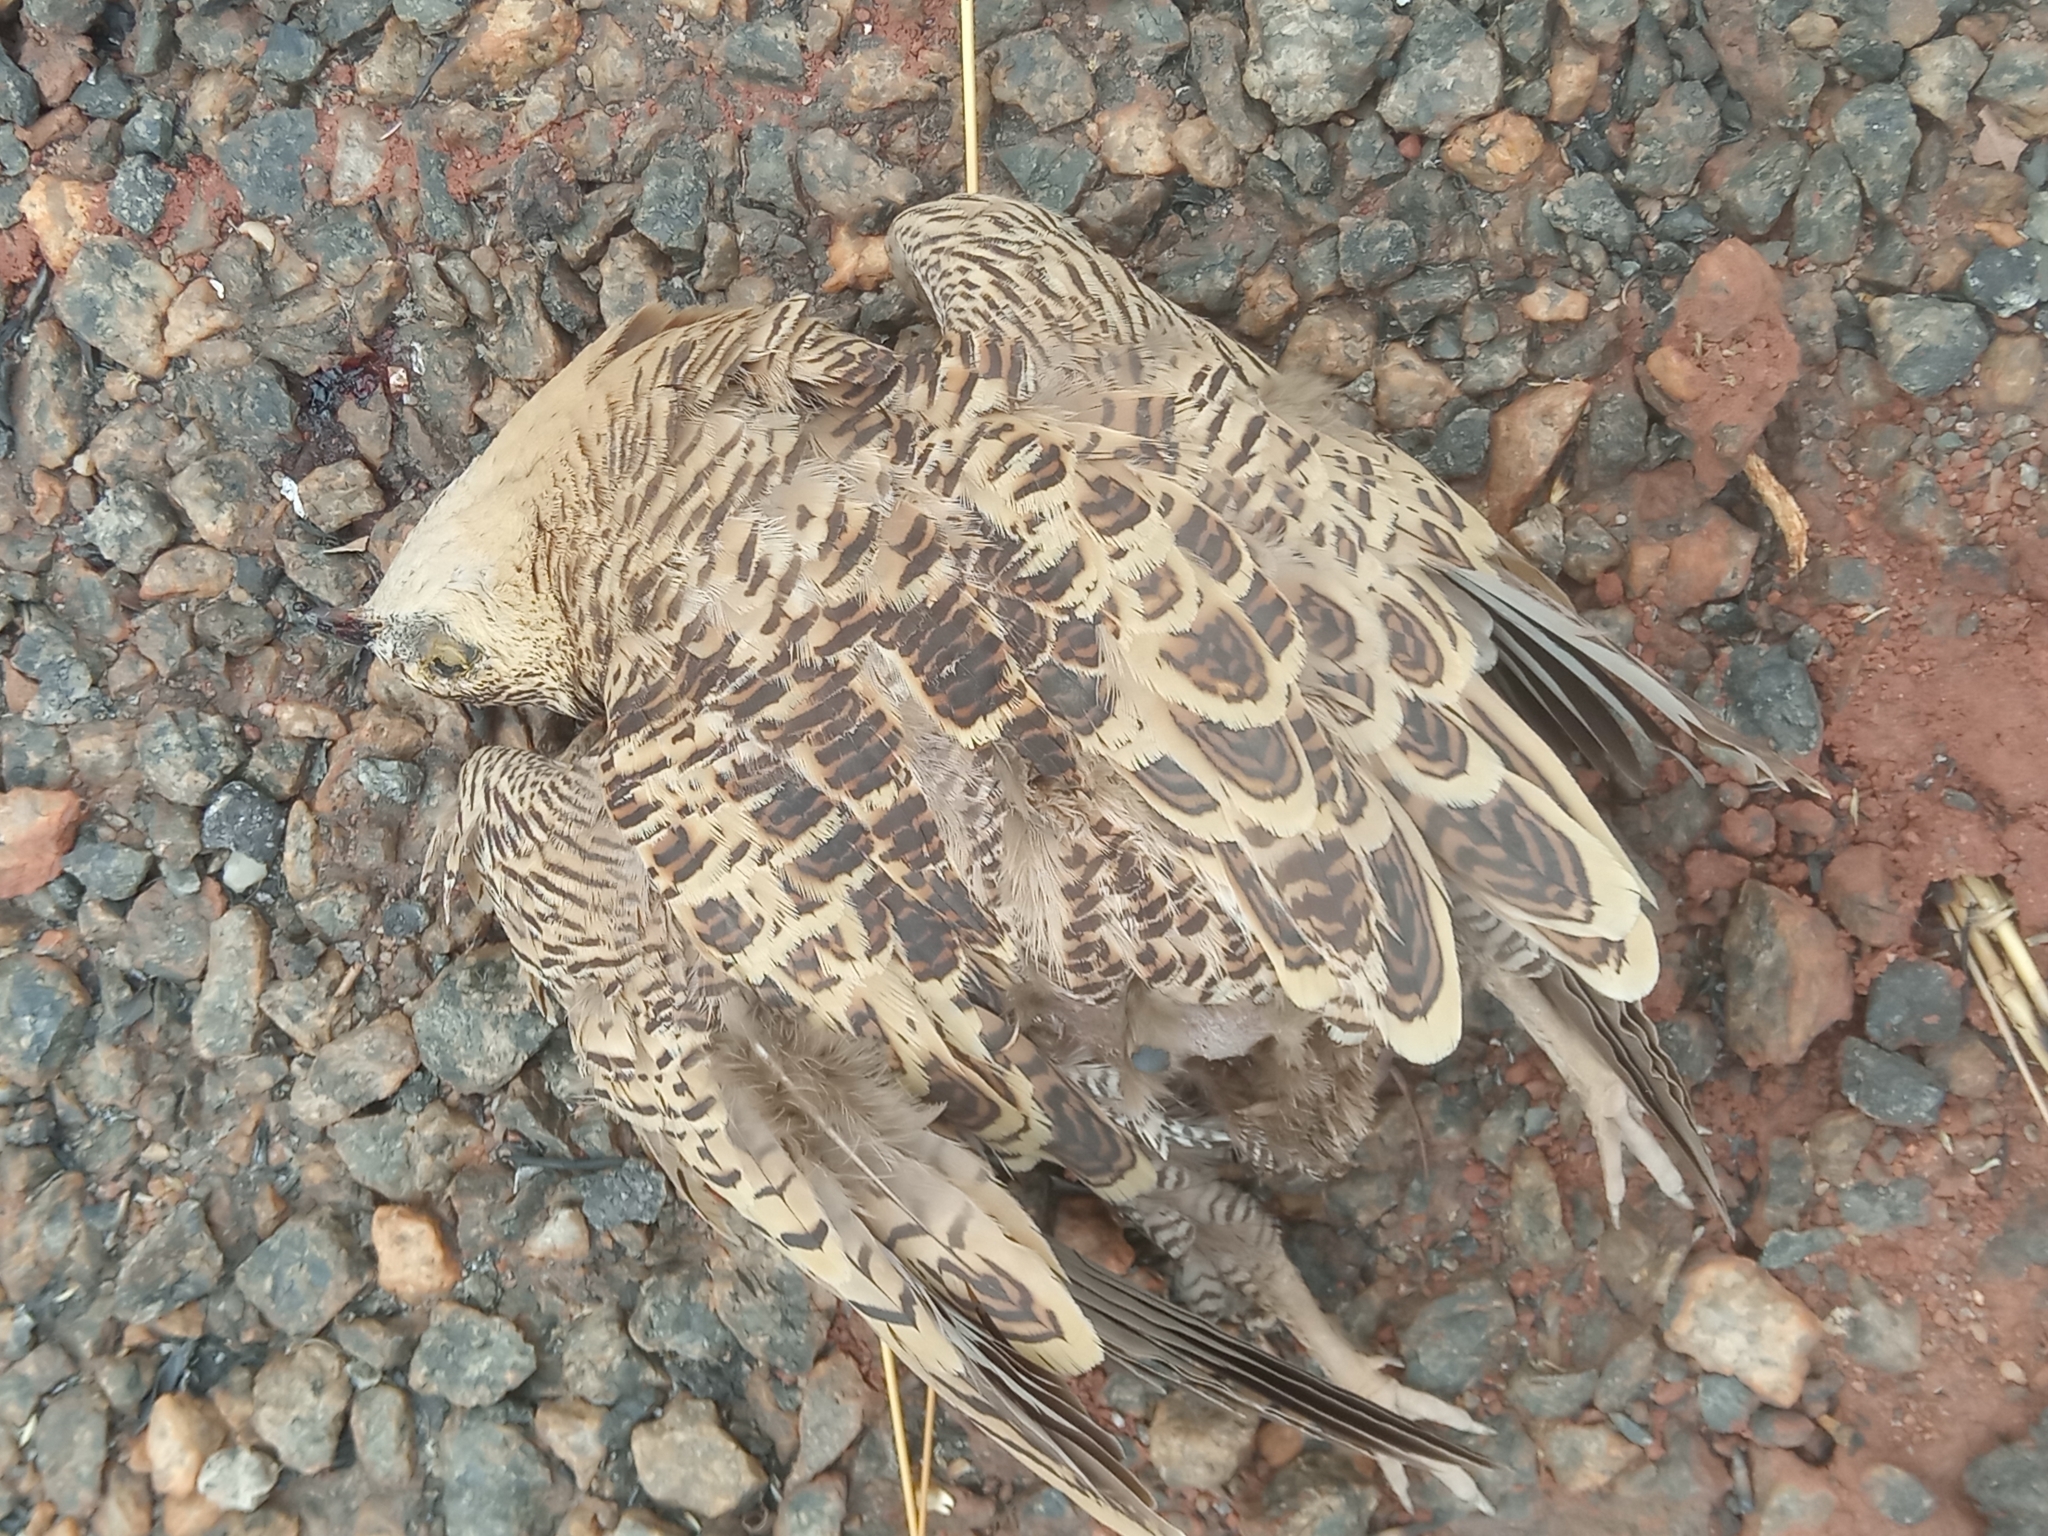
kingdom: Animalia
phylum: Chordata
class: Aves
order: Pteroclidiformes
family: Pteroclididae
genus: Pterocles
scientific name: Pterocles quadricinctus
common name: Four-banded sandgrouse
